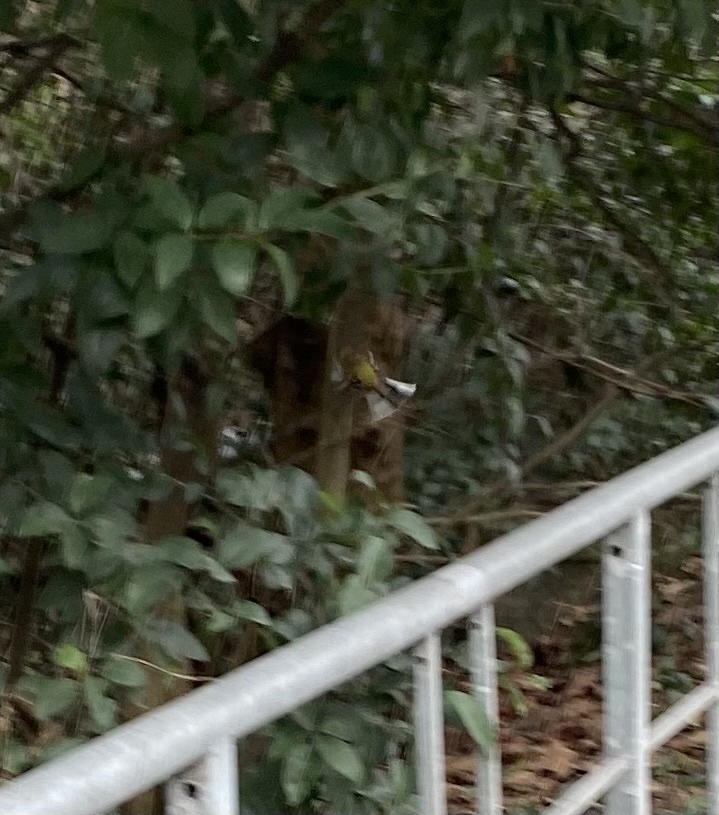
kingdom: Animalia
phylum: Chordata
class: Aves
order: Passeriformes
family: Fringillidae
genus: Fringilla
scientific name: Fringilla coelebs
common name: Common chaffinch
